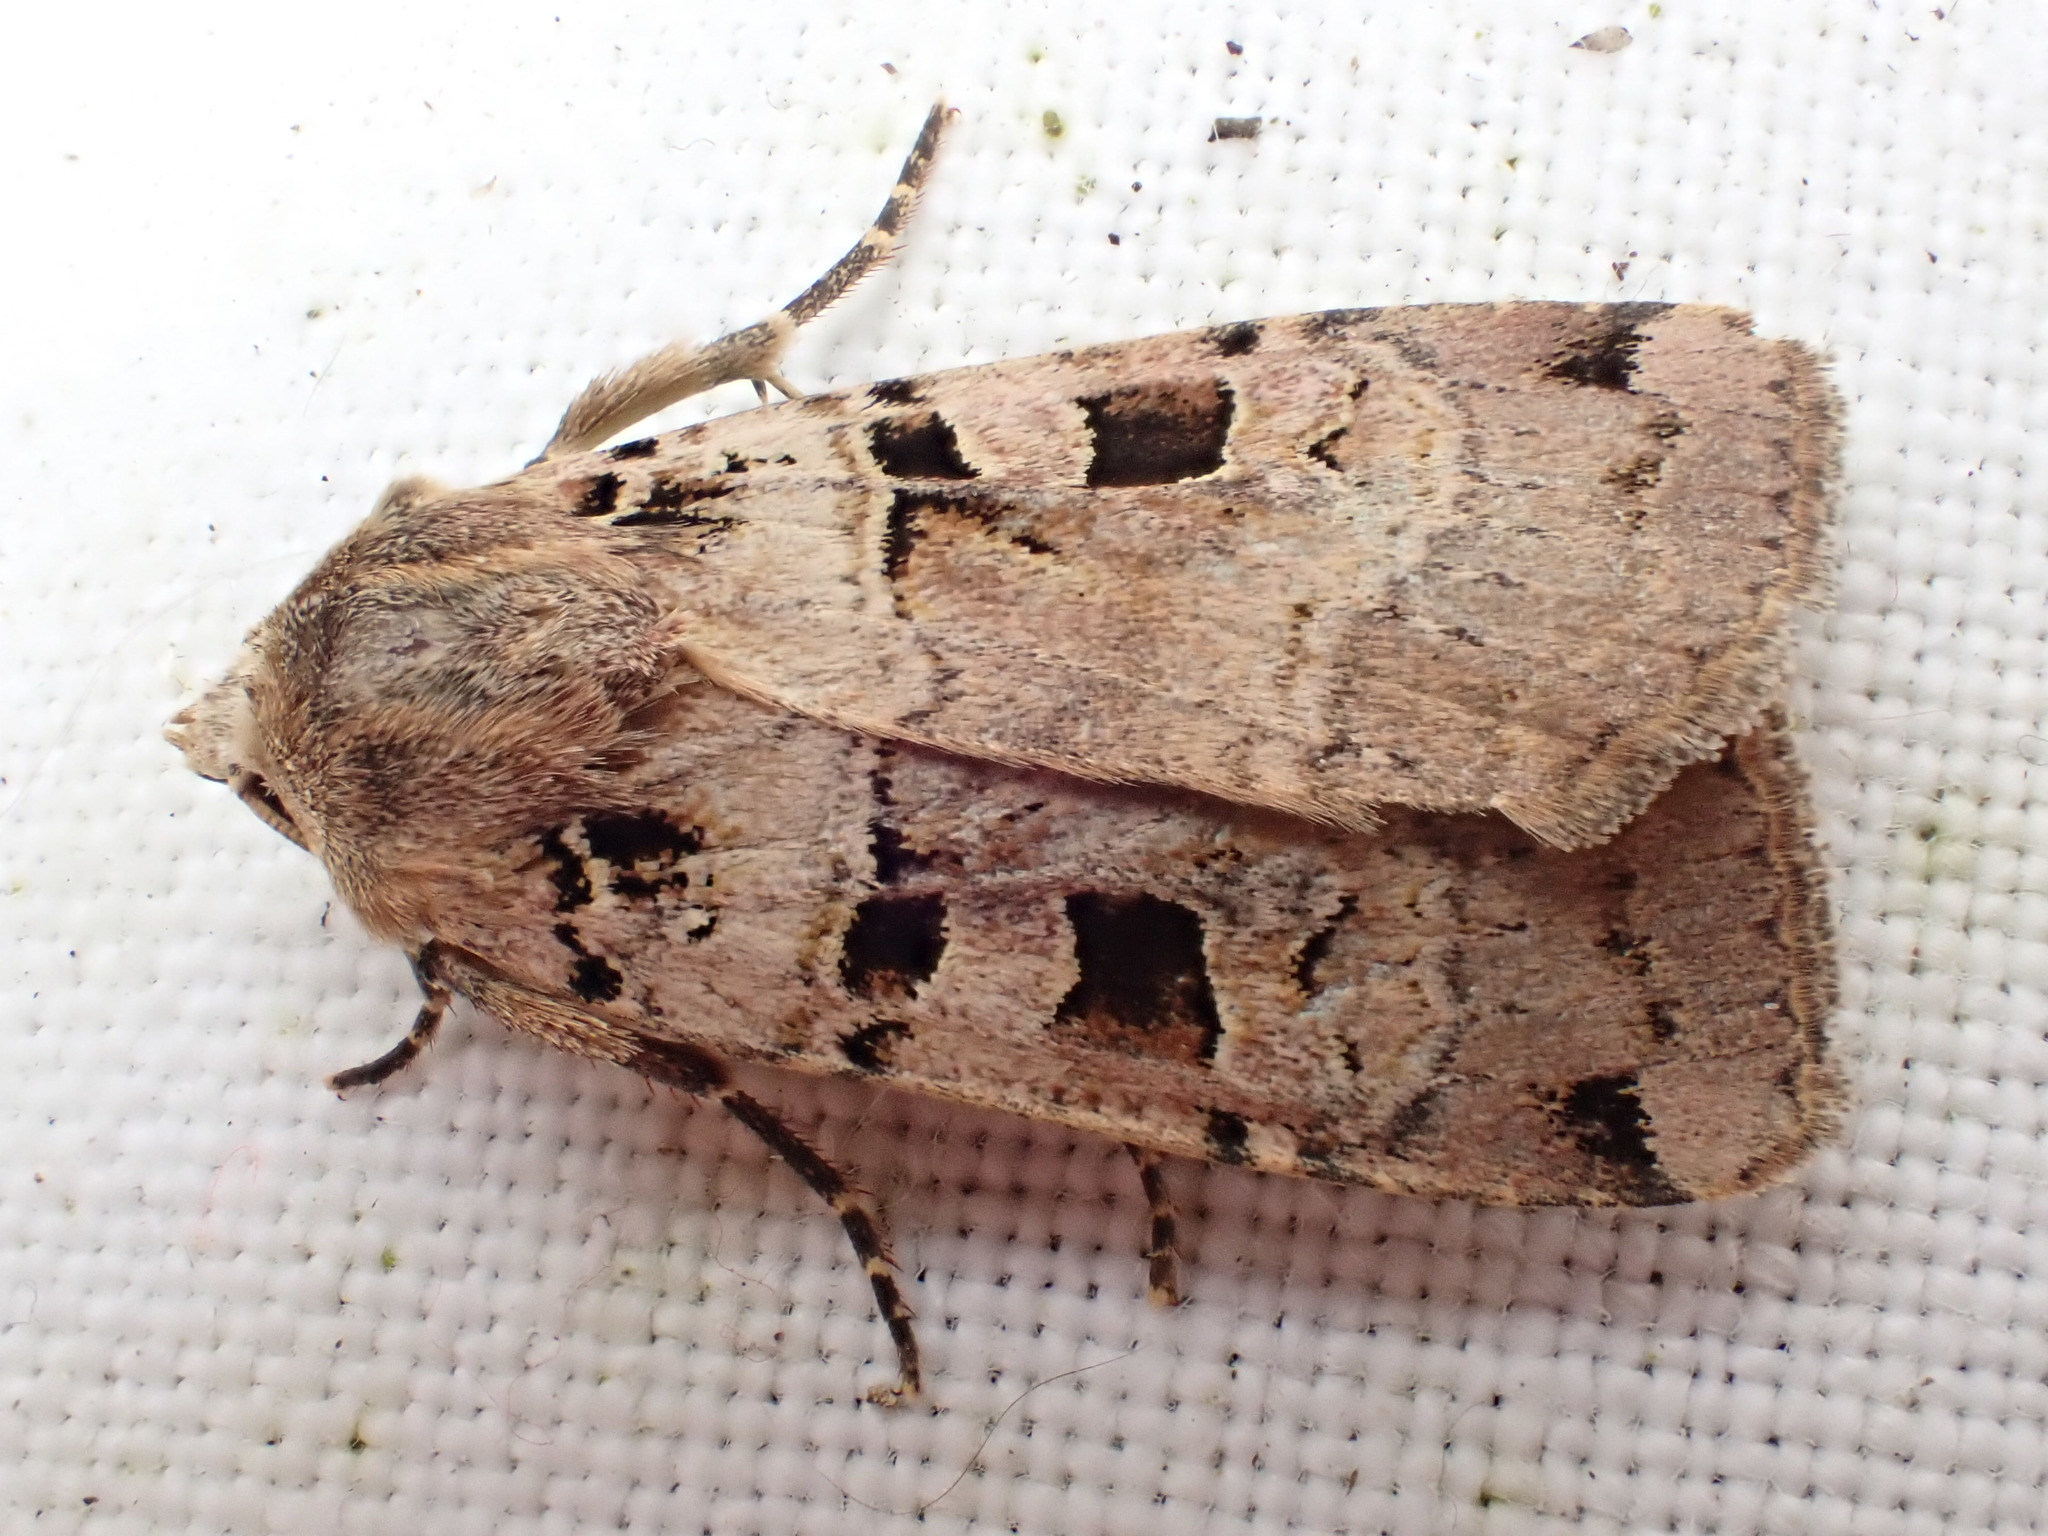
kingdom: Animalia
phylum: Arthropoda
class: Insecta
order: Lepidoptera
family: Noctuidae
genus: Xestia
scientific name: Xestia triangulum
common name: Double square-spot
